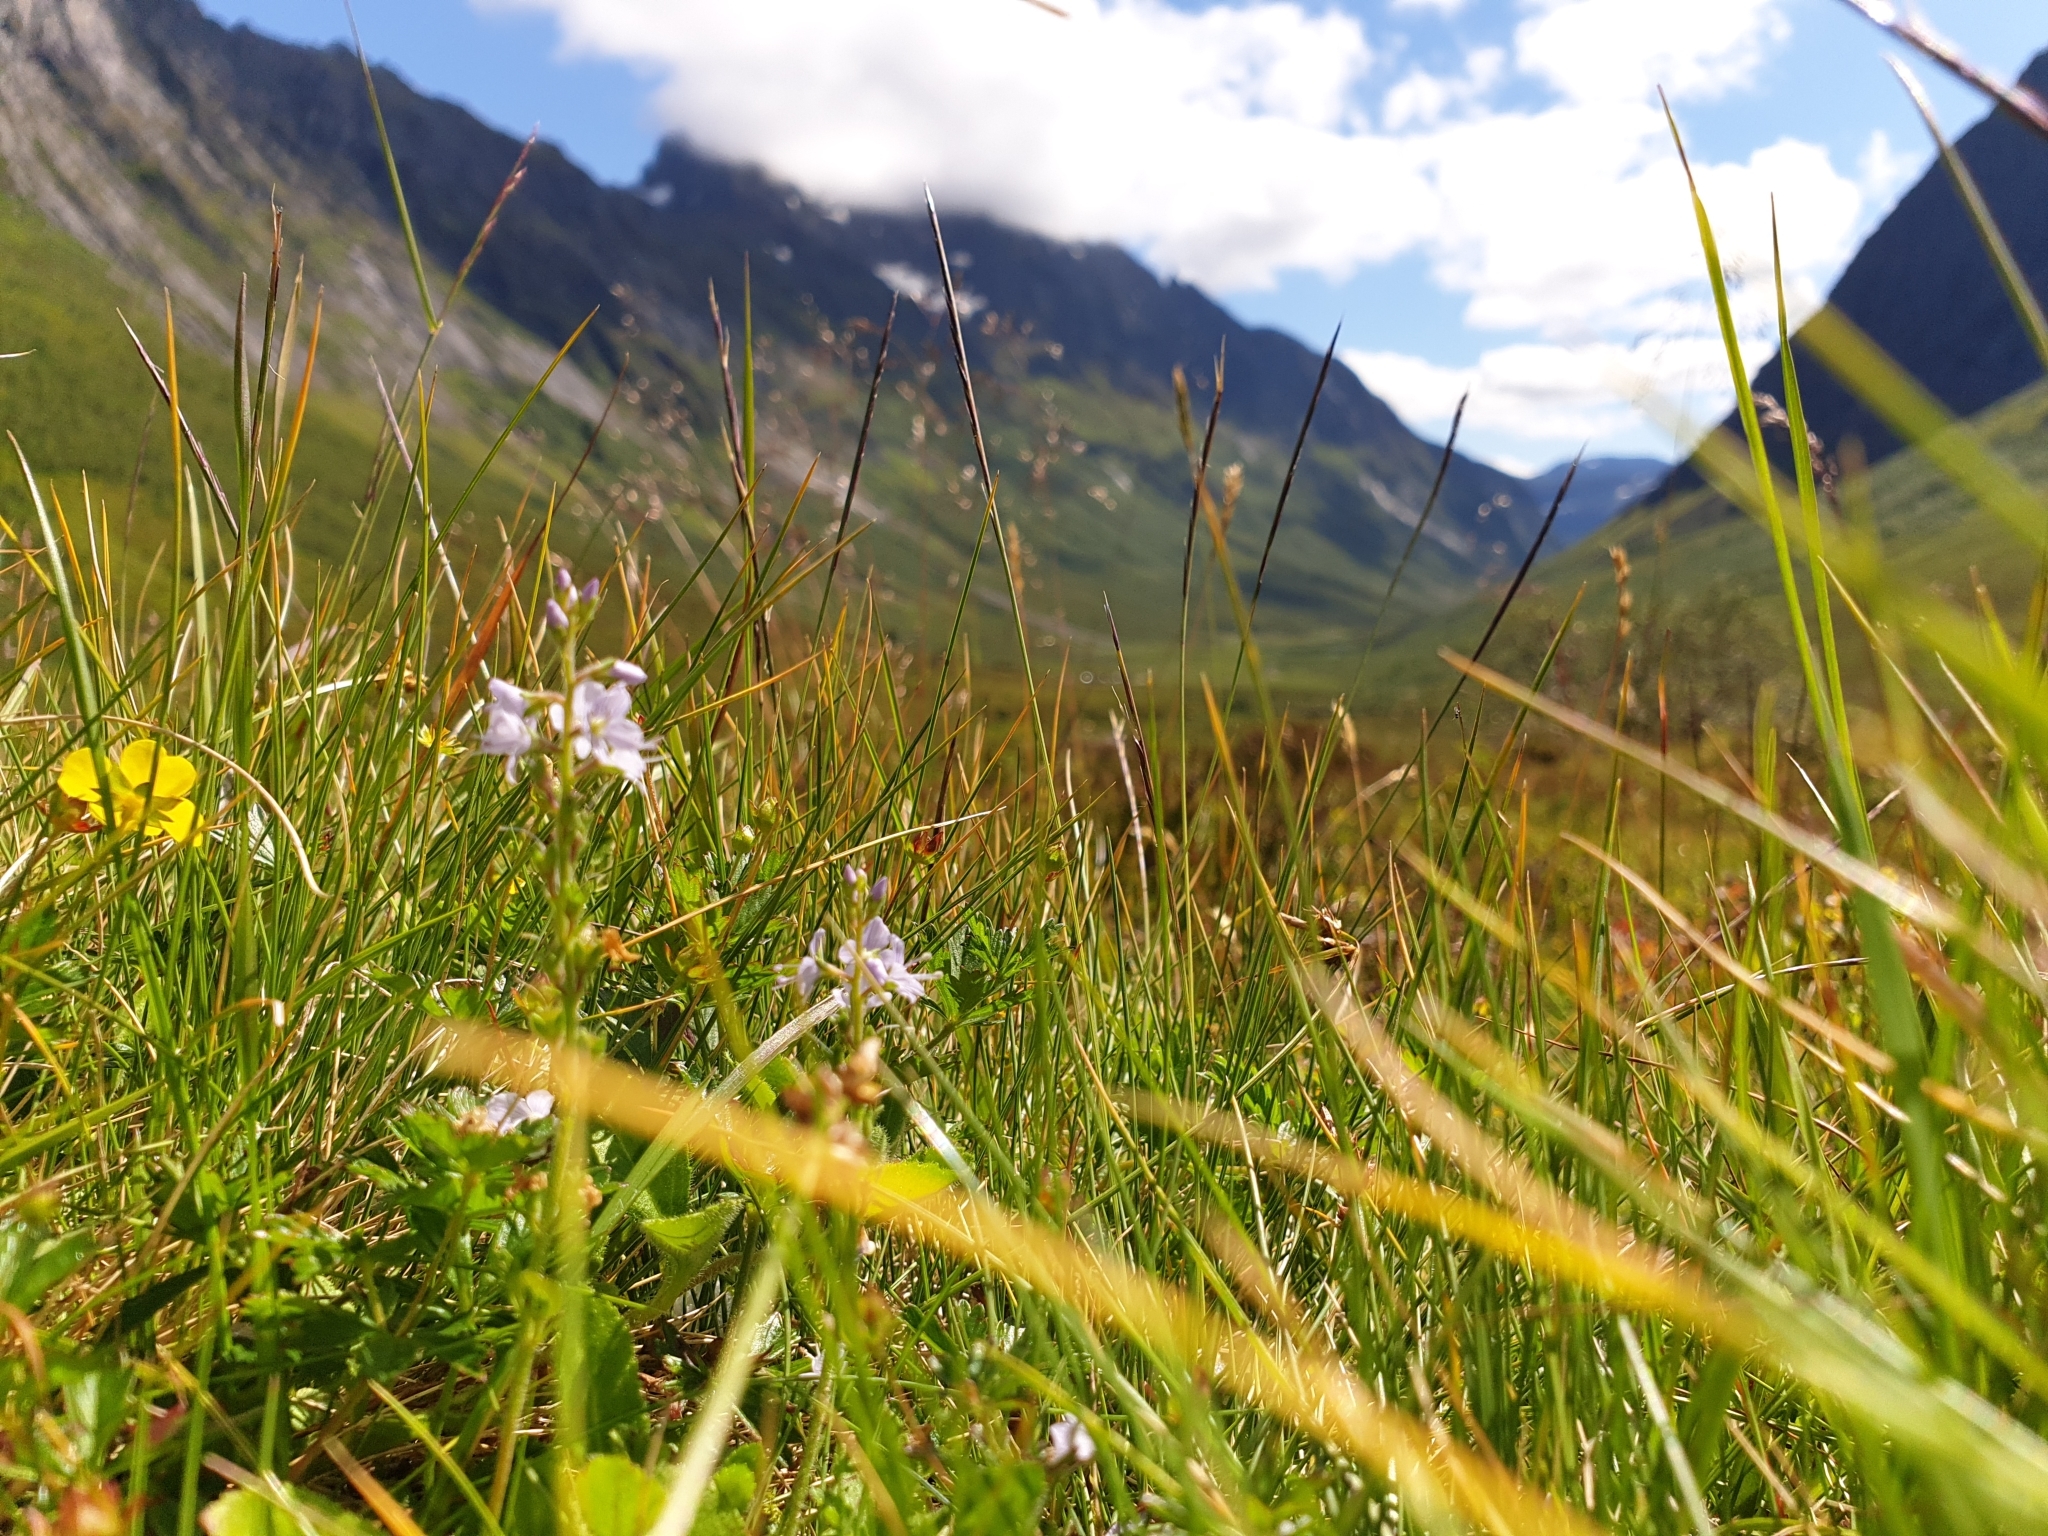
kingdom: Plantae
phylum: Tracheophyta
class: Magnoliopsida
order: Lamiales
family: Plantaginaceae
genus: Veronica
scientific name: Veronica officinalis
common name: Common speedwell
